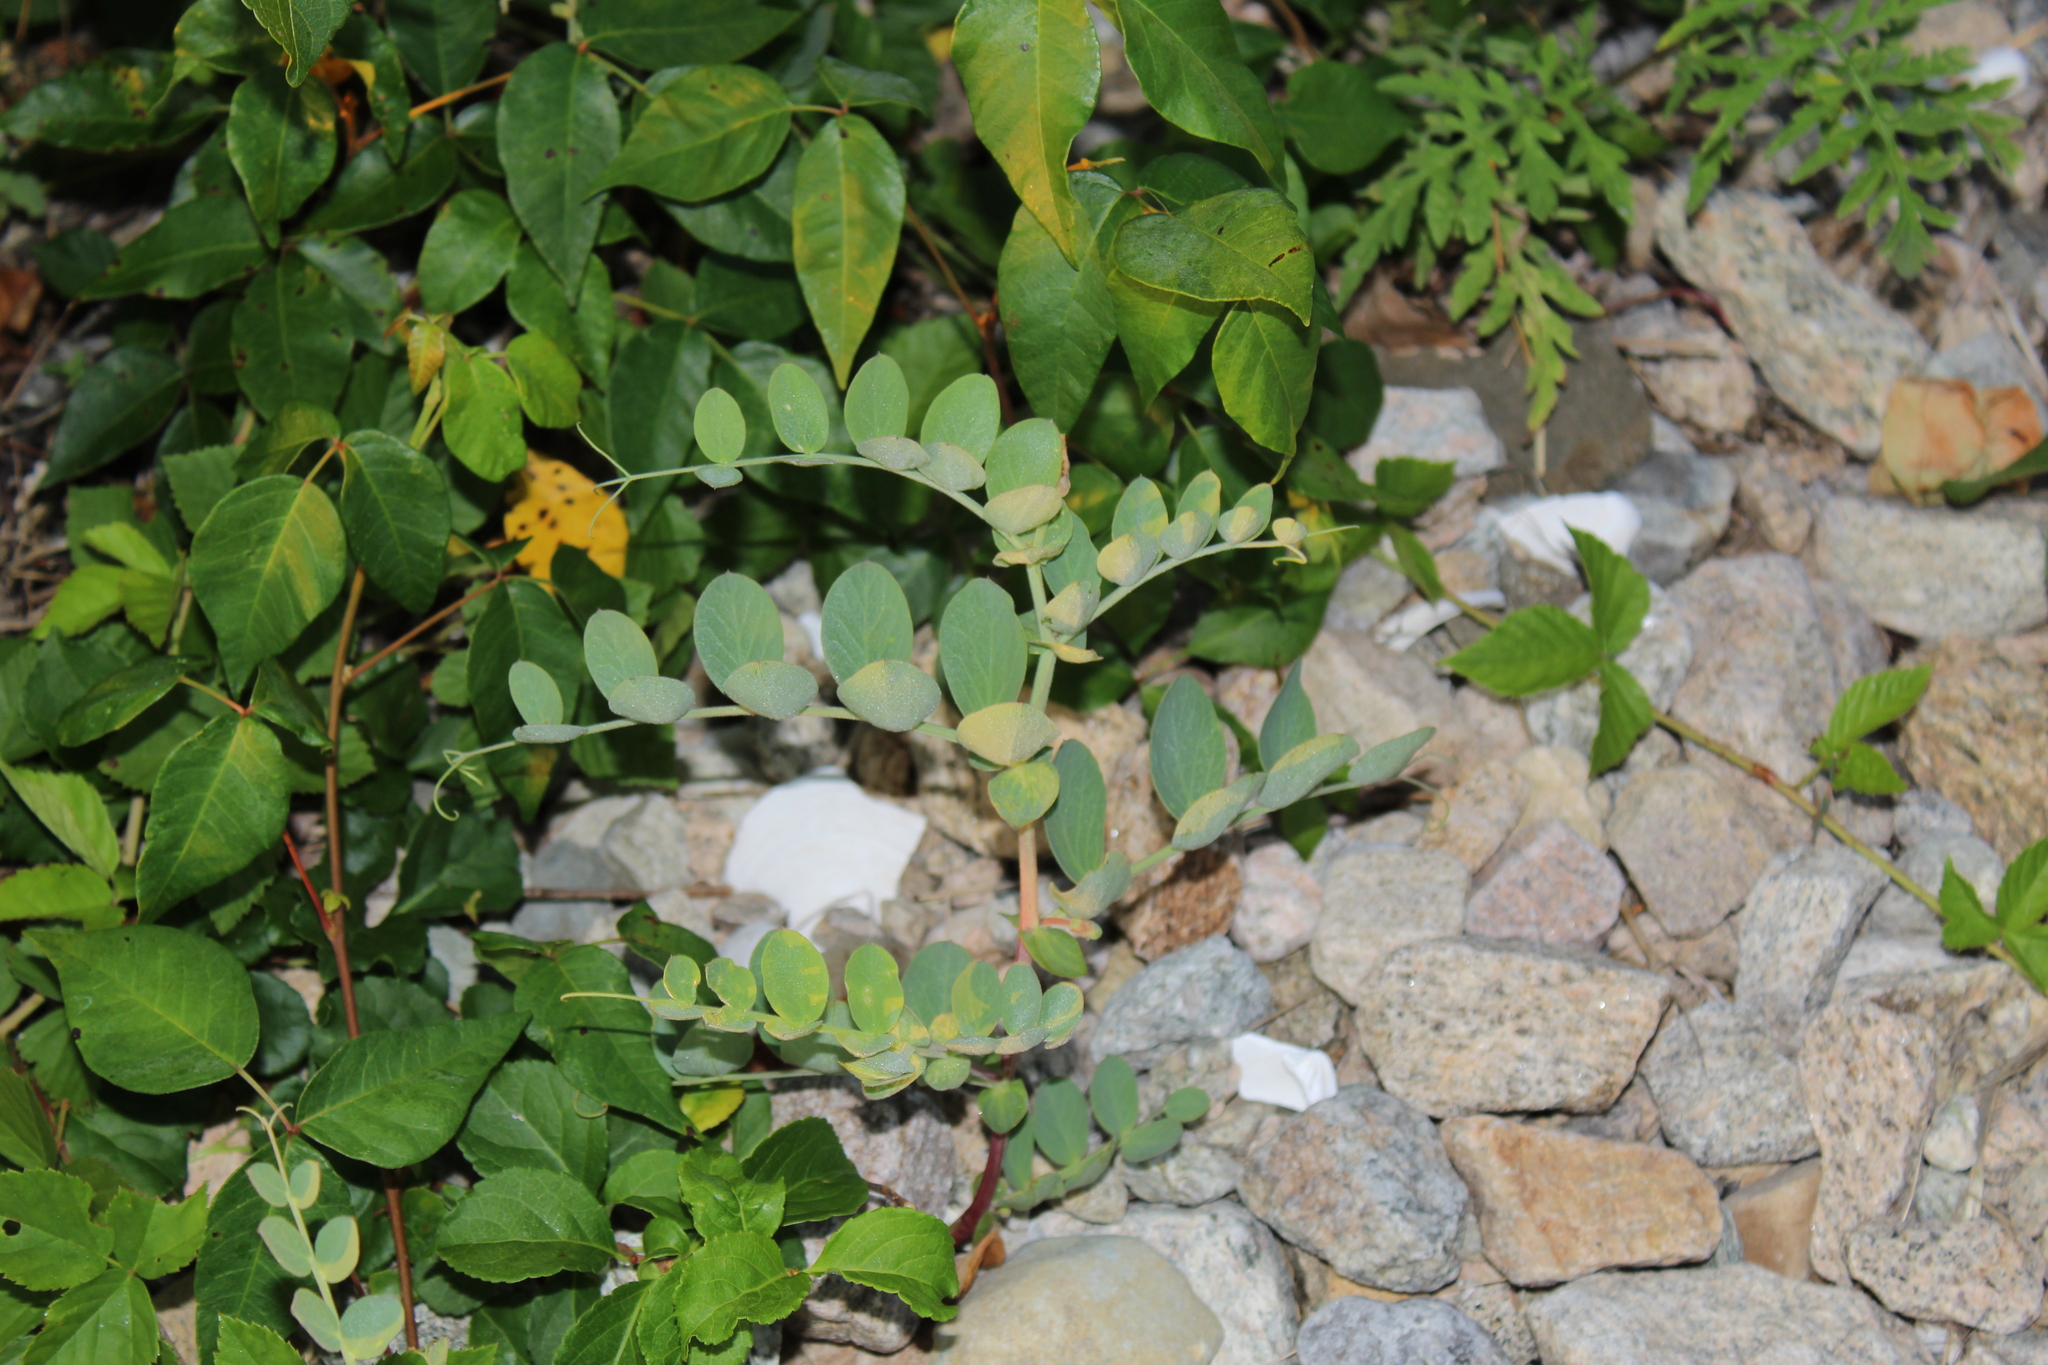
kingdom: Plantae
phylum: Tracheophyta
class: Magnoliopsida
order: Fabales
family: Fabaceae
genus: Lathyrus
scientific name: Lathyrus japonicus
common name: Sea pea
